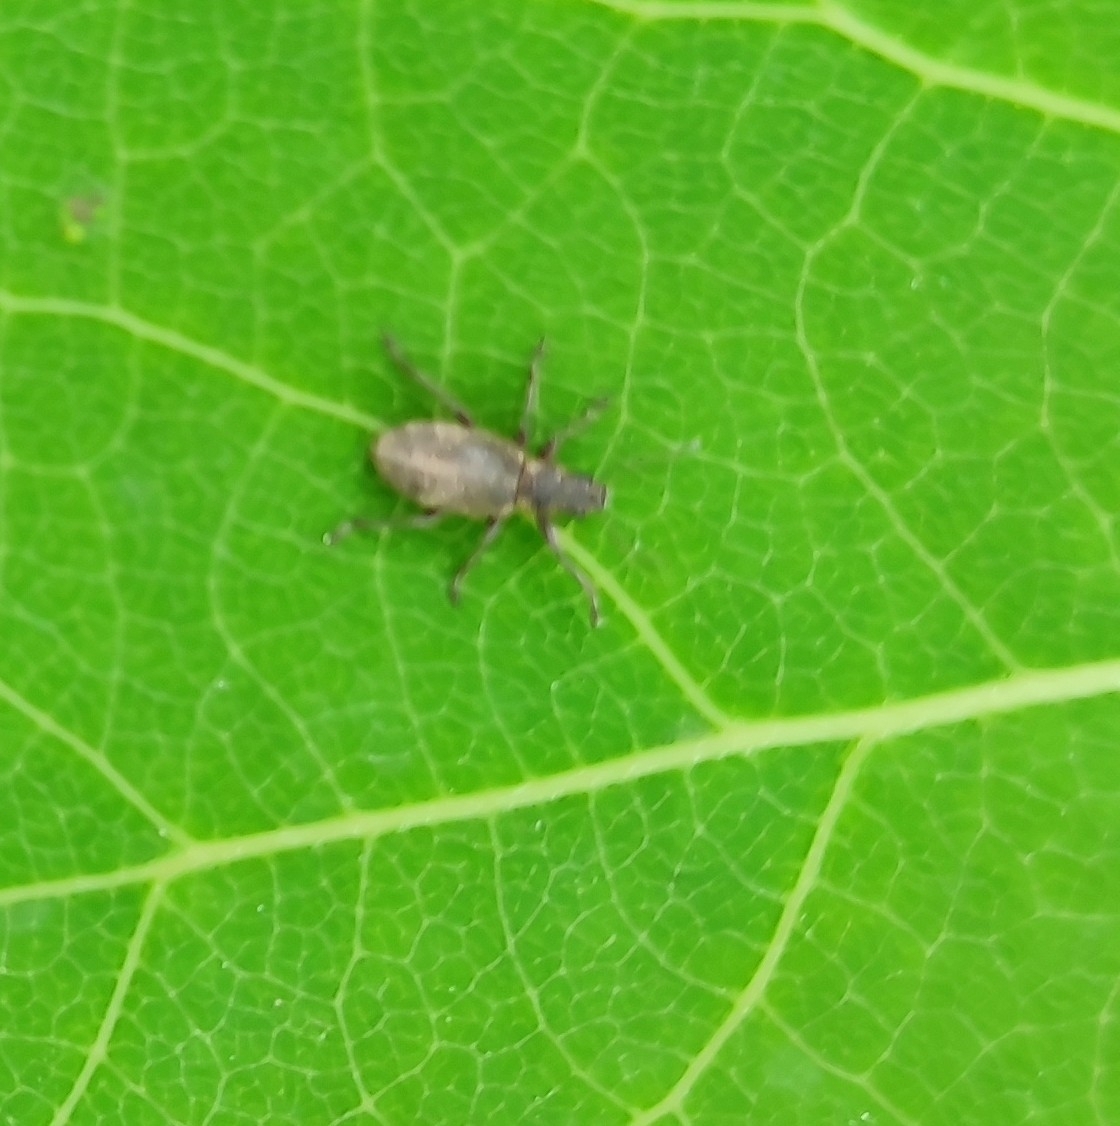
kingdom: Animalia
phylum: Arthropoda
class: Insecta
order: Coleoptera
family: Curculionidae
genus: Polydrusus
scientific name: Polydrusus inustus
